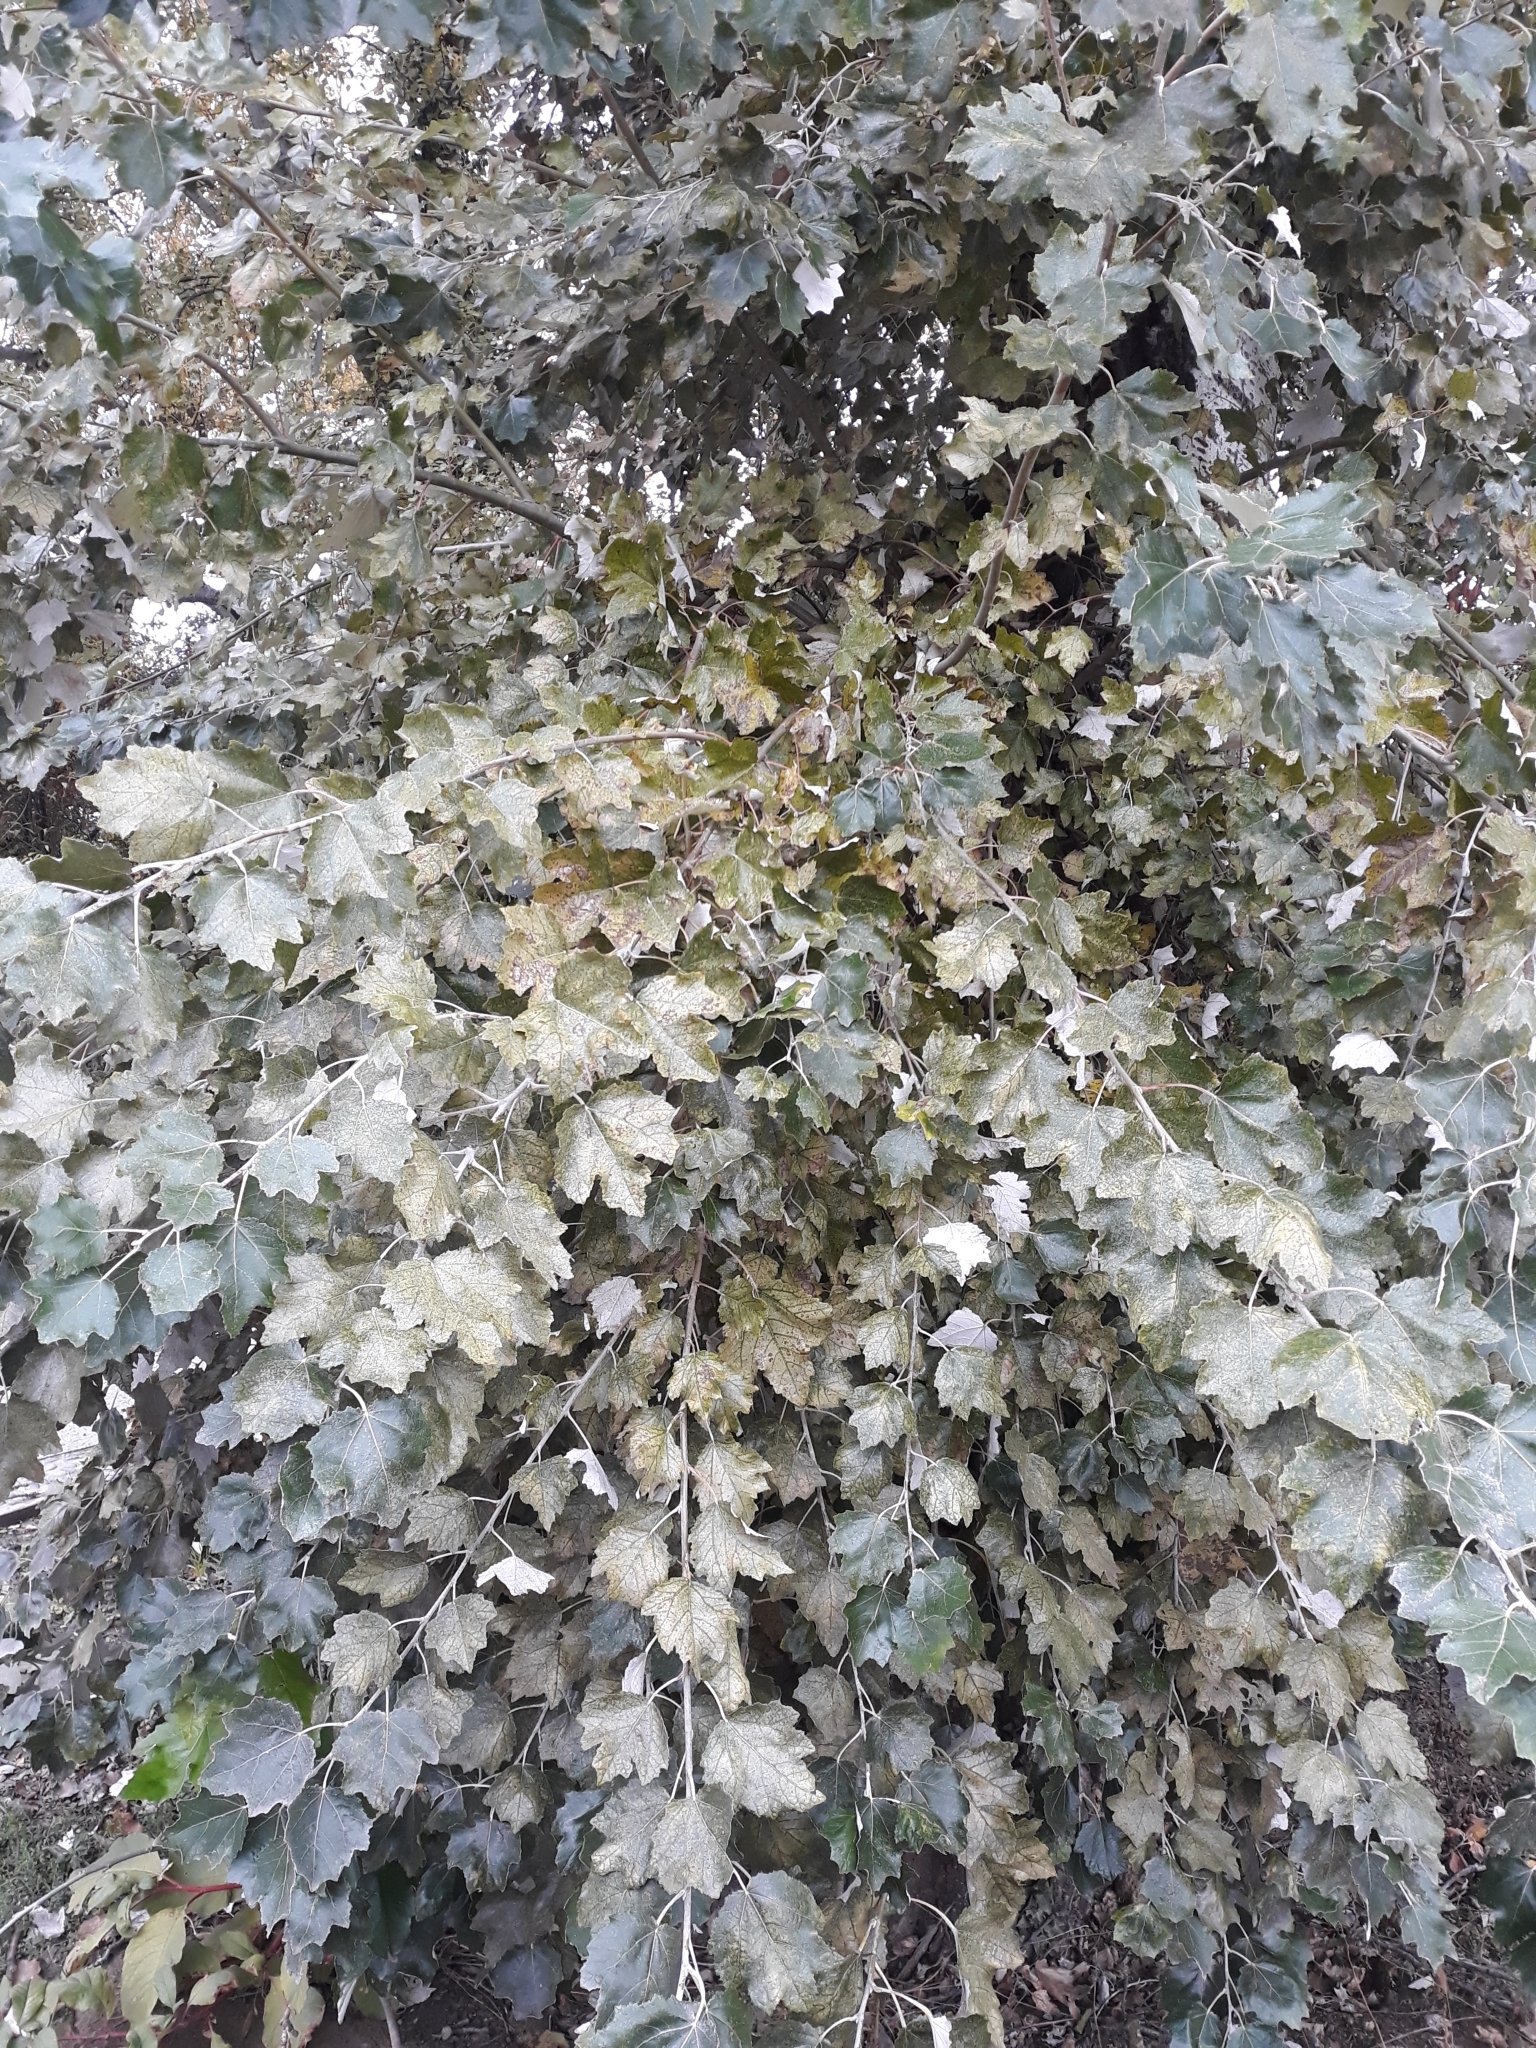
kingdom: Plantae
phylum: Tracheophyta
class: Magnoliopsida
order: Malpighiales
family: Salicaceae
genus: Populus
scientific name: Populus alba
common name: White poplar
